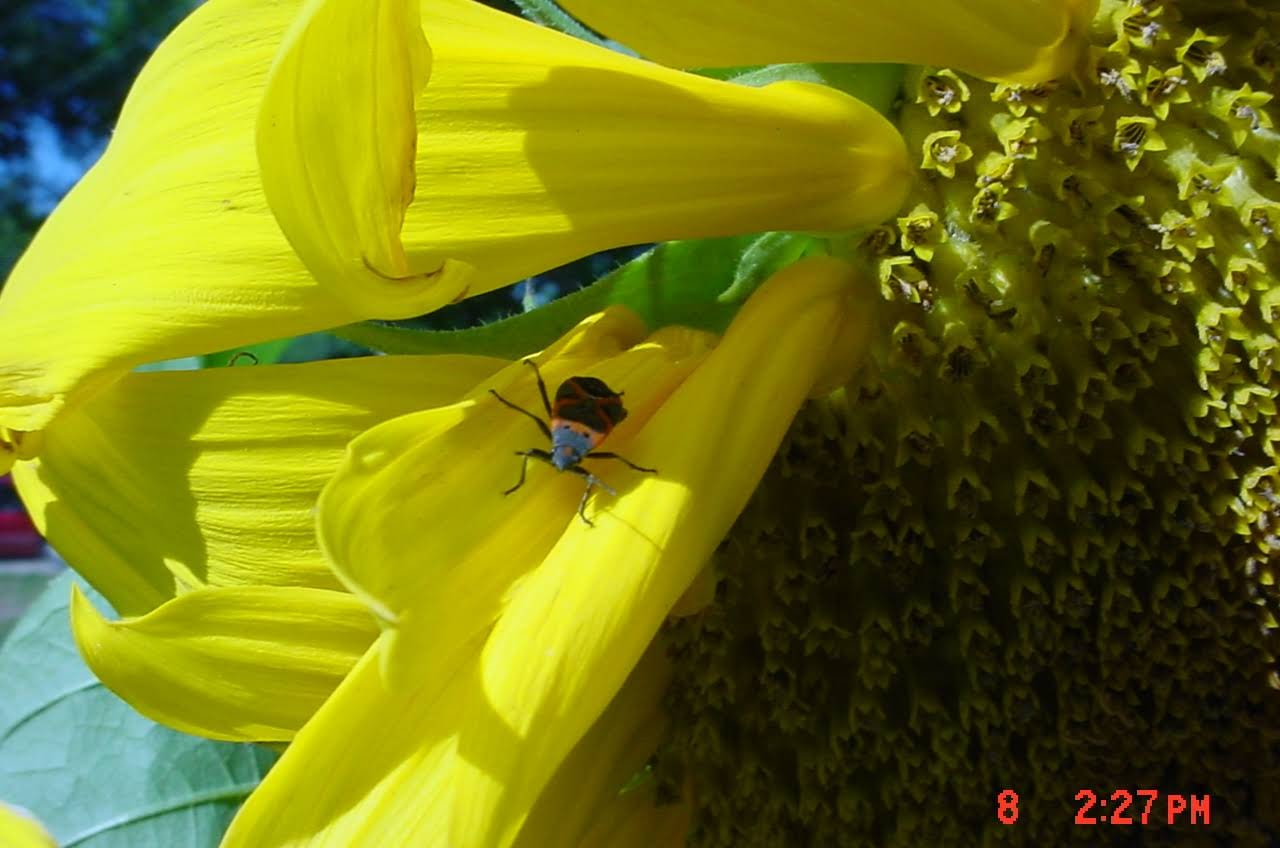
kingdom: Animalia
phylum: Arthropoda
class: Insecta
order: Hemiptera
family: Lygaeidae
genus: Lygaeus
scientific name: Lygaeus kalmii
